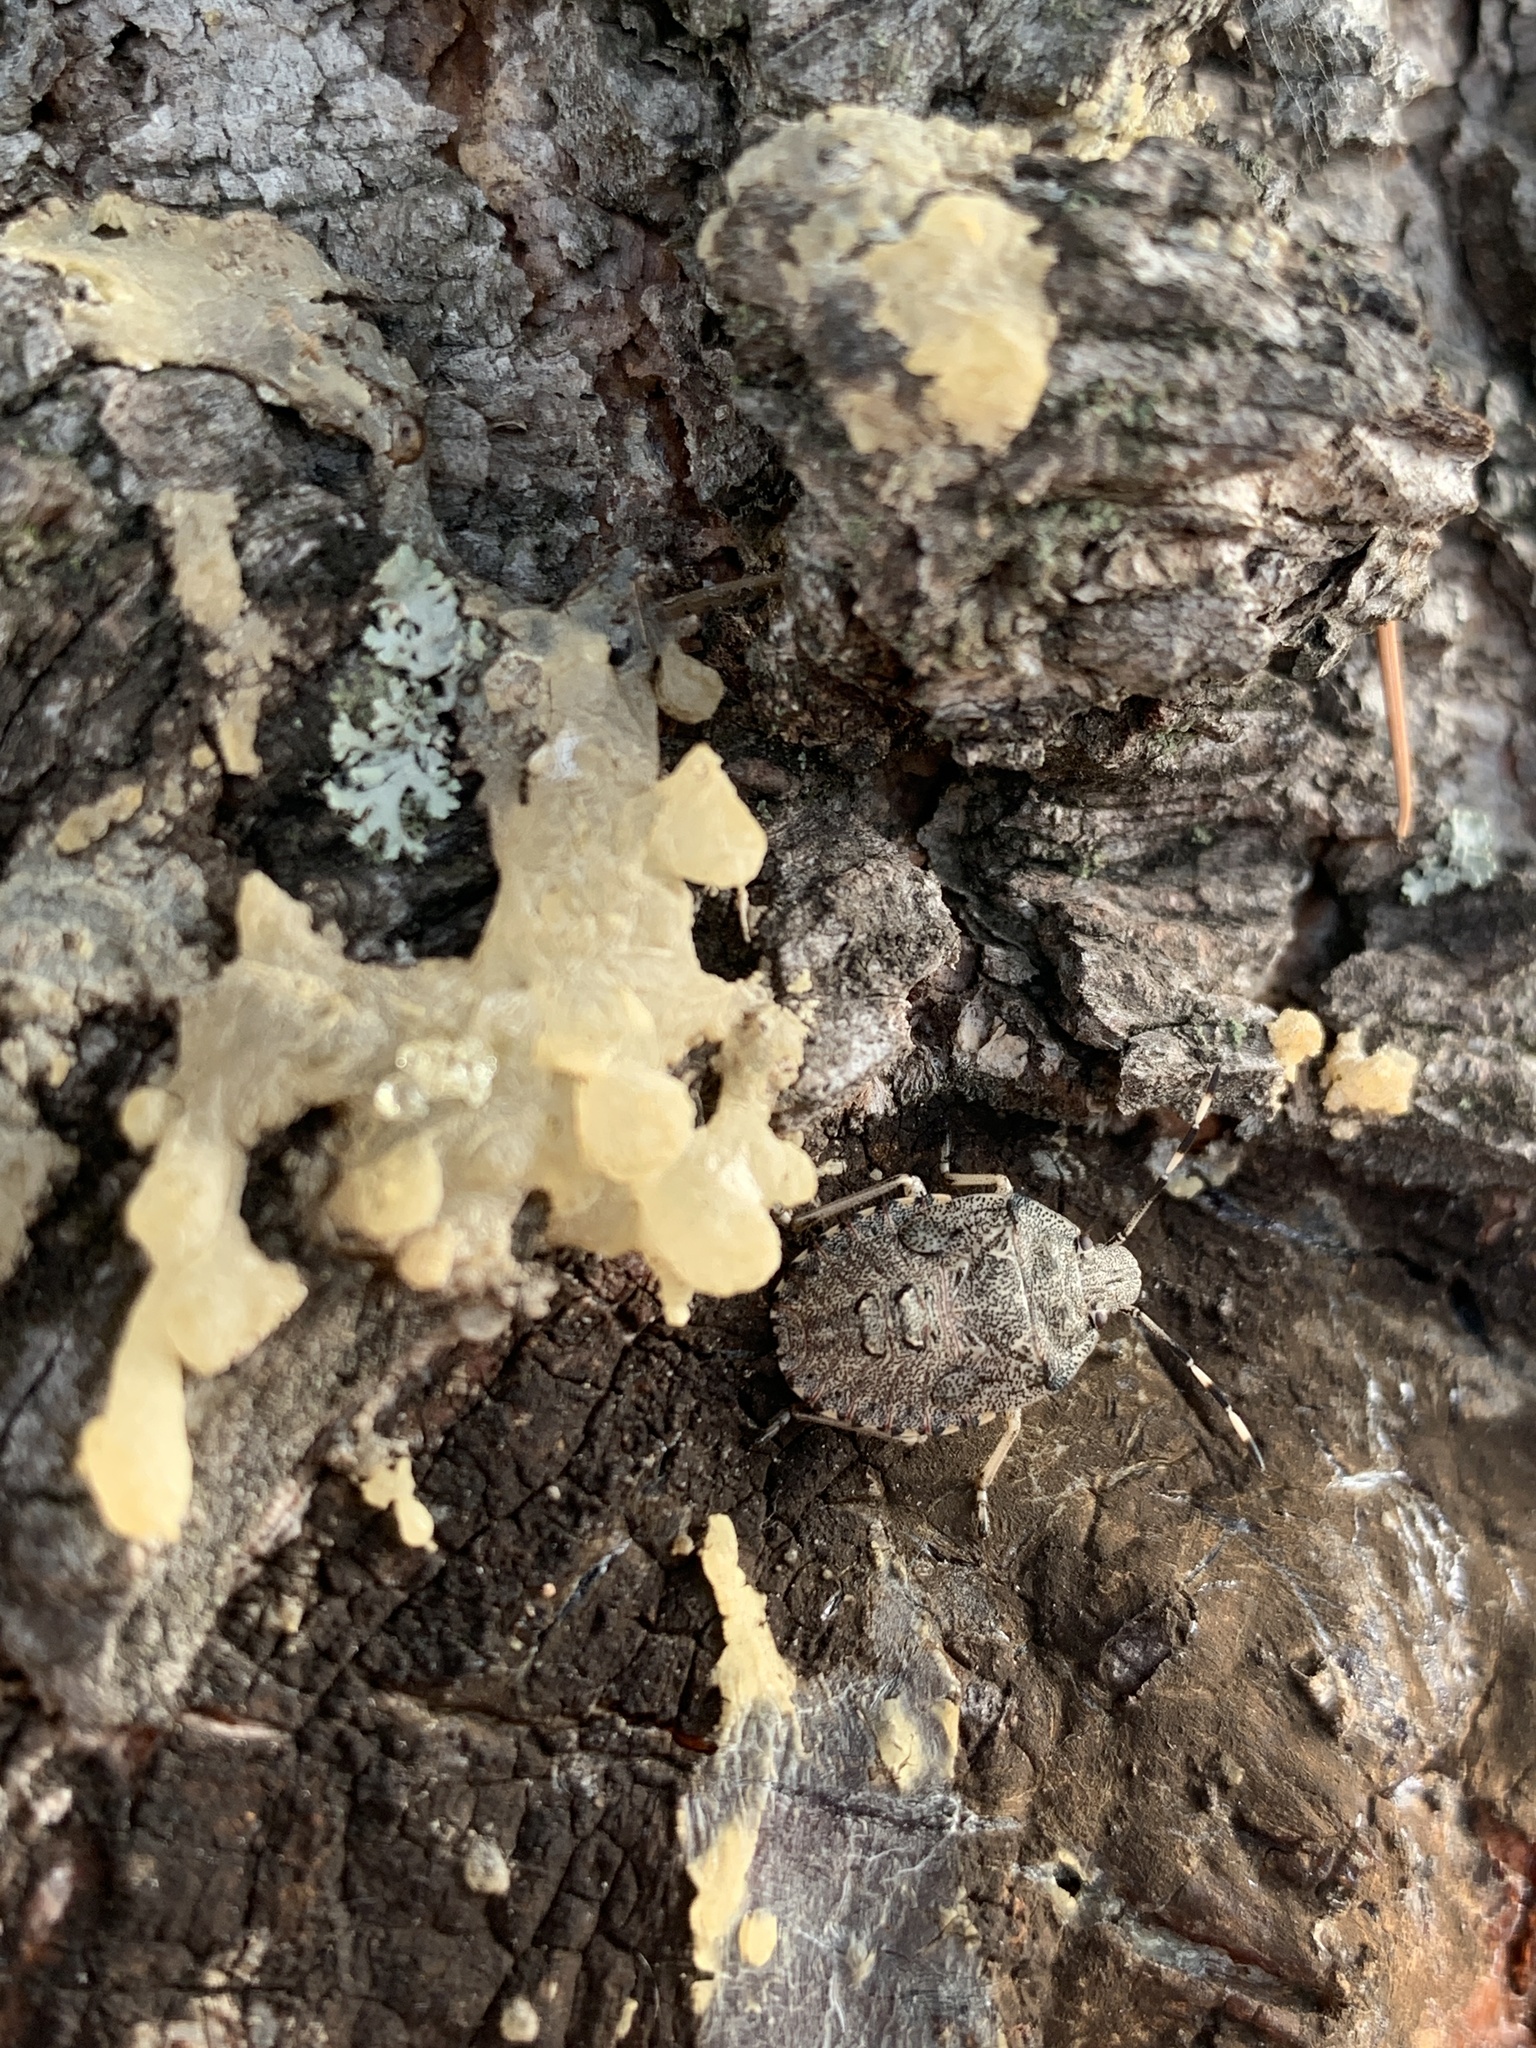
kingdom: Animalia
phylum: Arthropoda
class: Insecta
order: Hemiptera
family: Pentatomidae
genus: Rhaphigaster
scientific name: Rhaphigaster nebulosa
